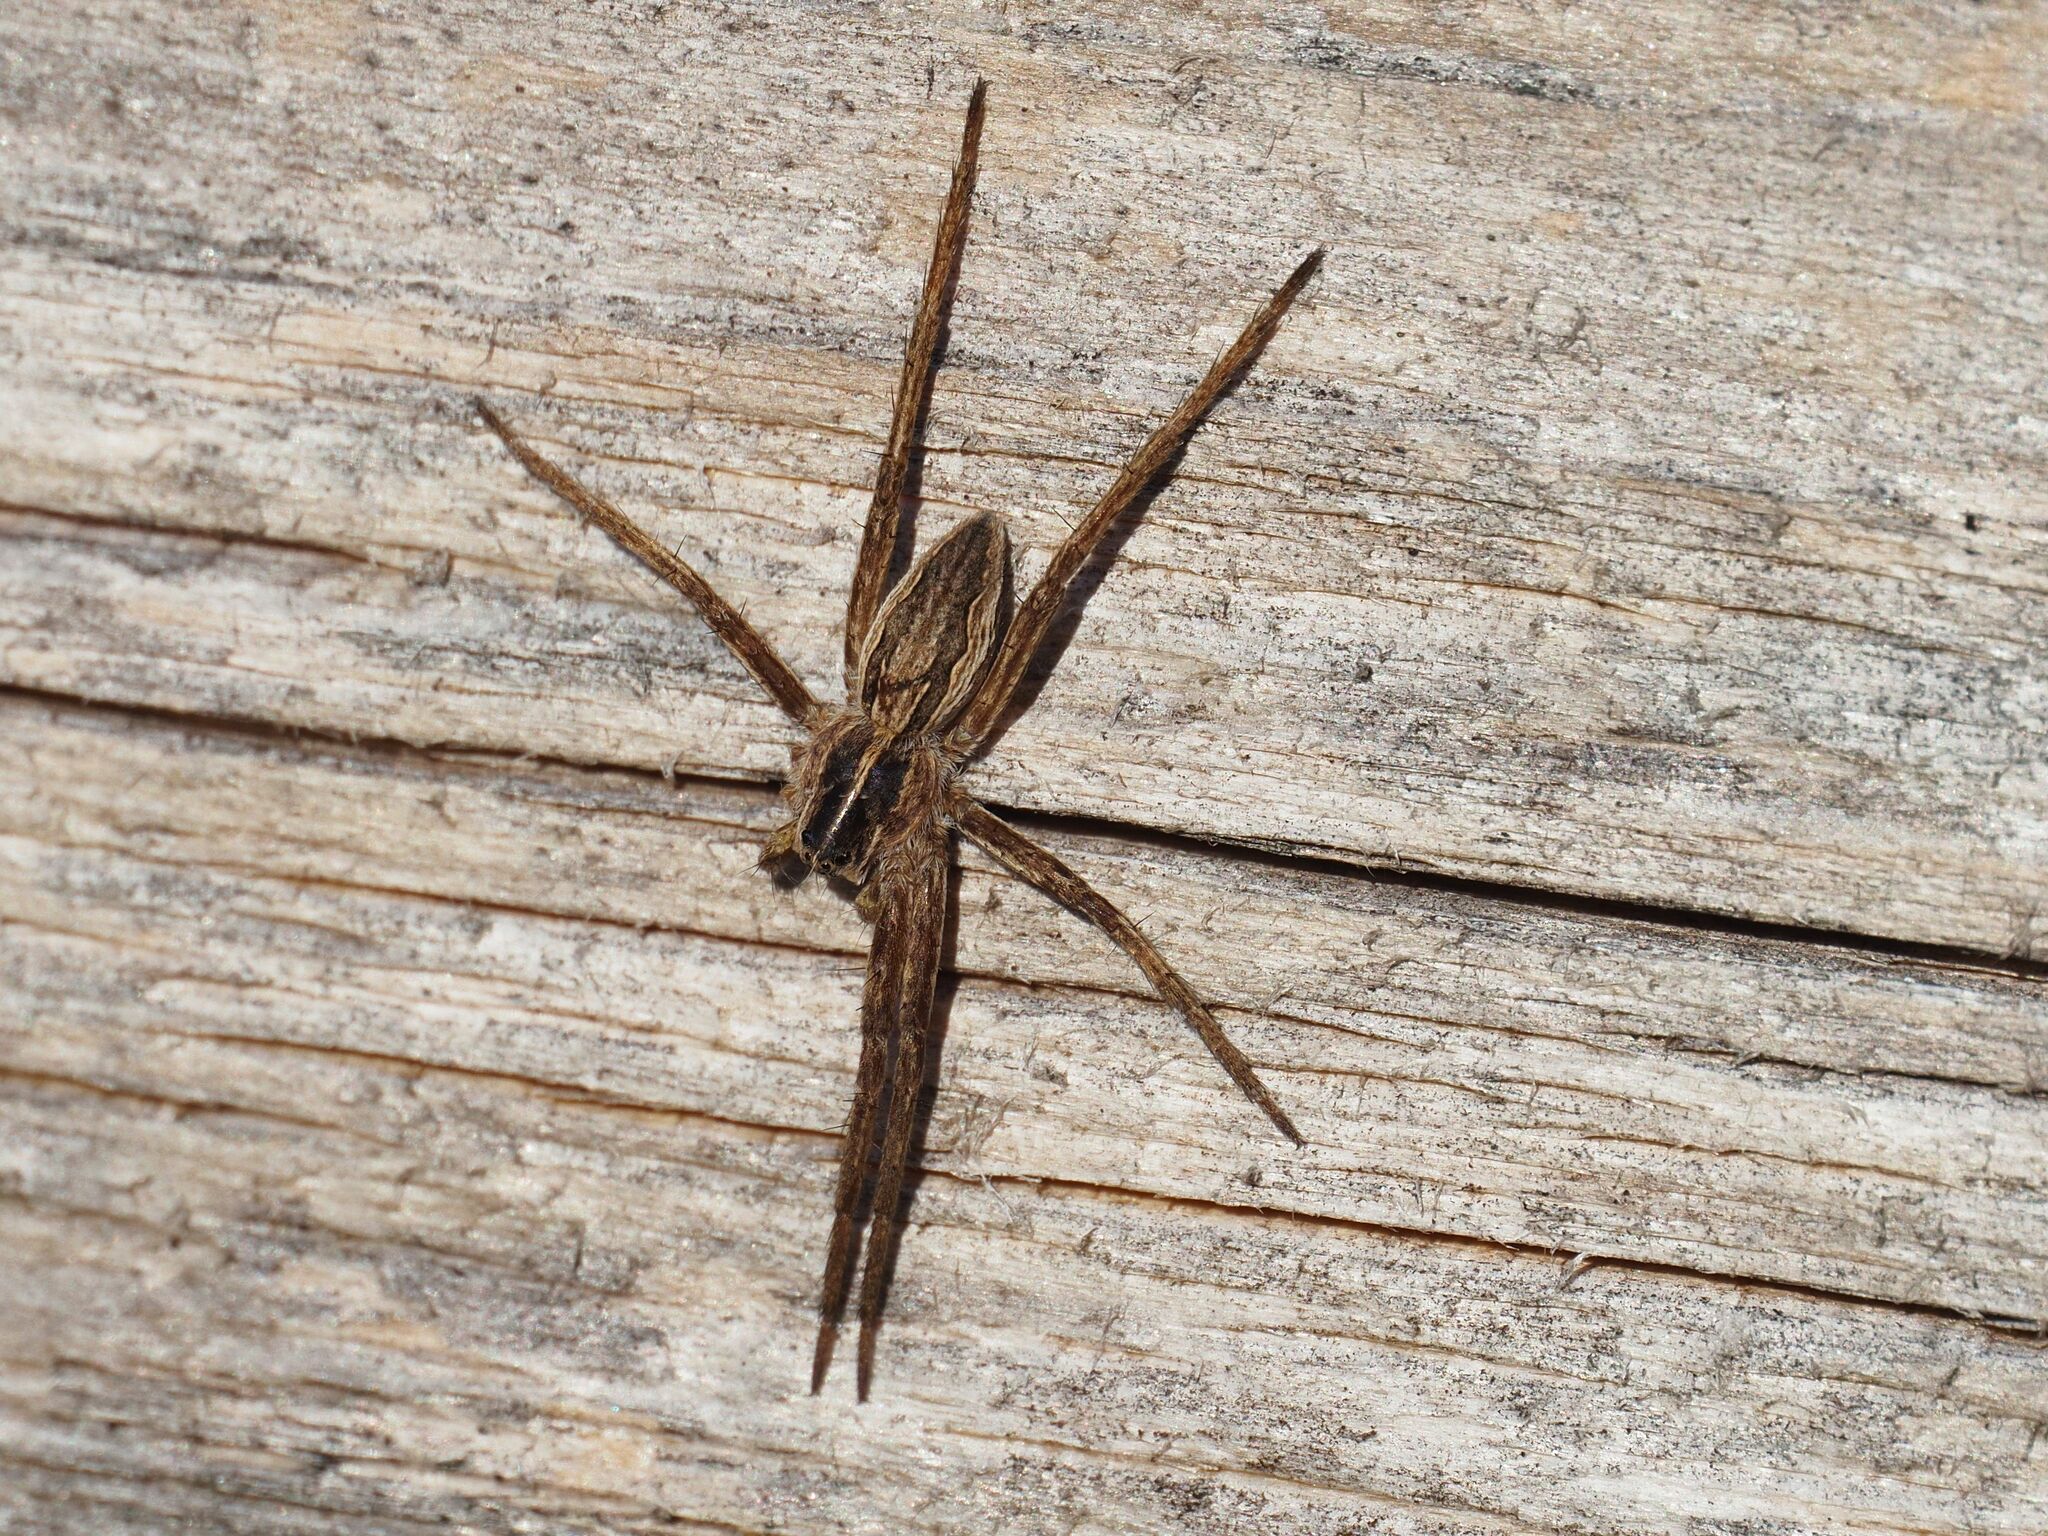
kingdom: Animalia
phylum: Arthropoda
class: Arachnida
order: Araneae
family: Pisauridae
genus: Pisaura
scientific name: Pisaura mirabilis
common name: Tent spider
